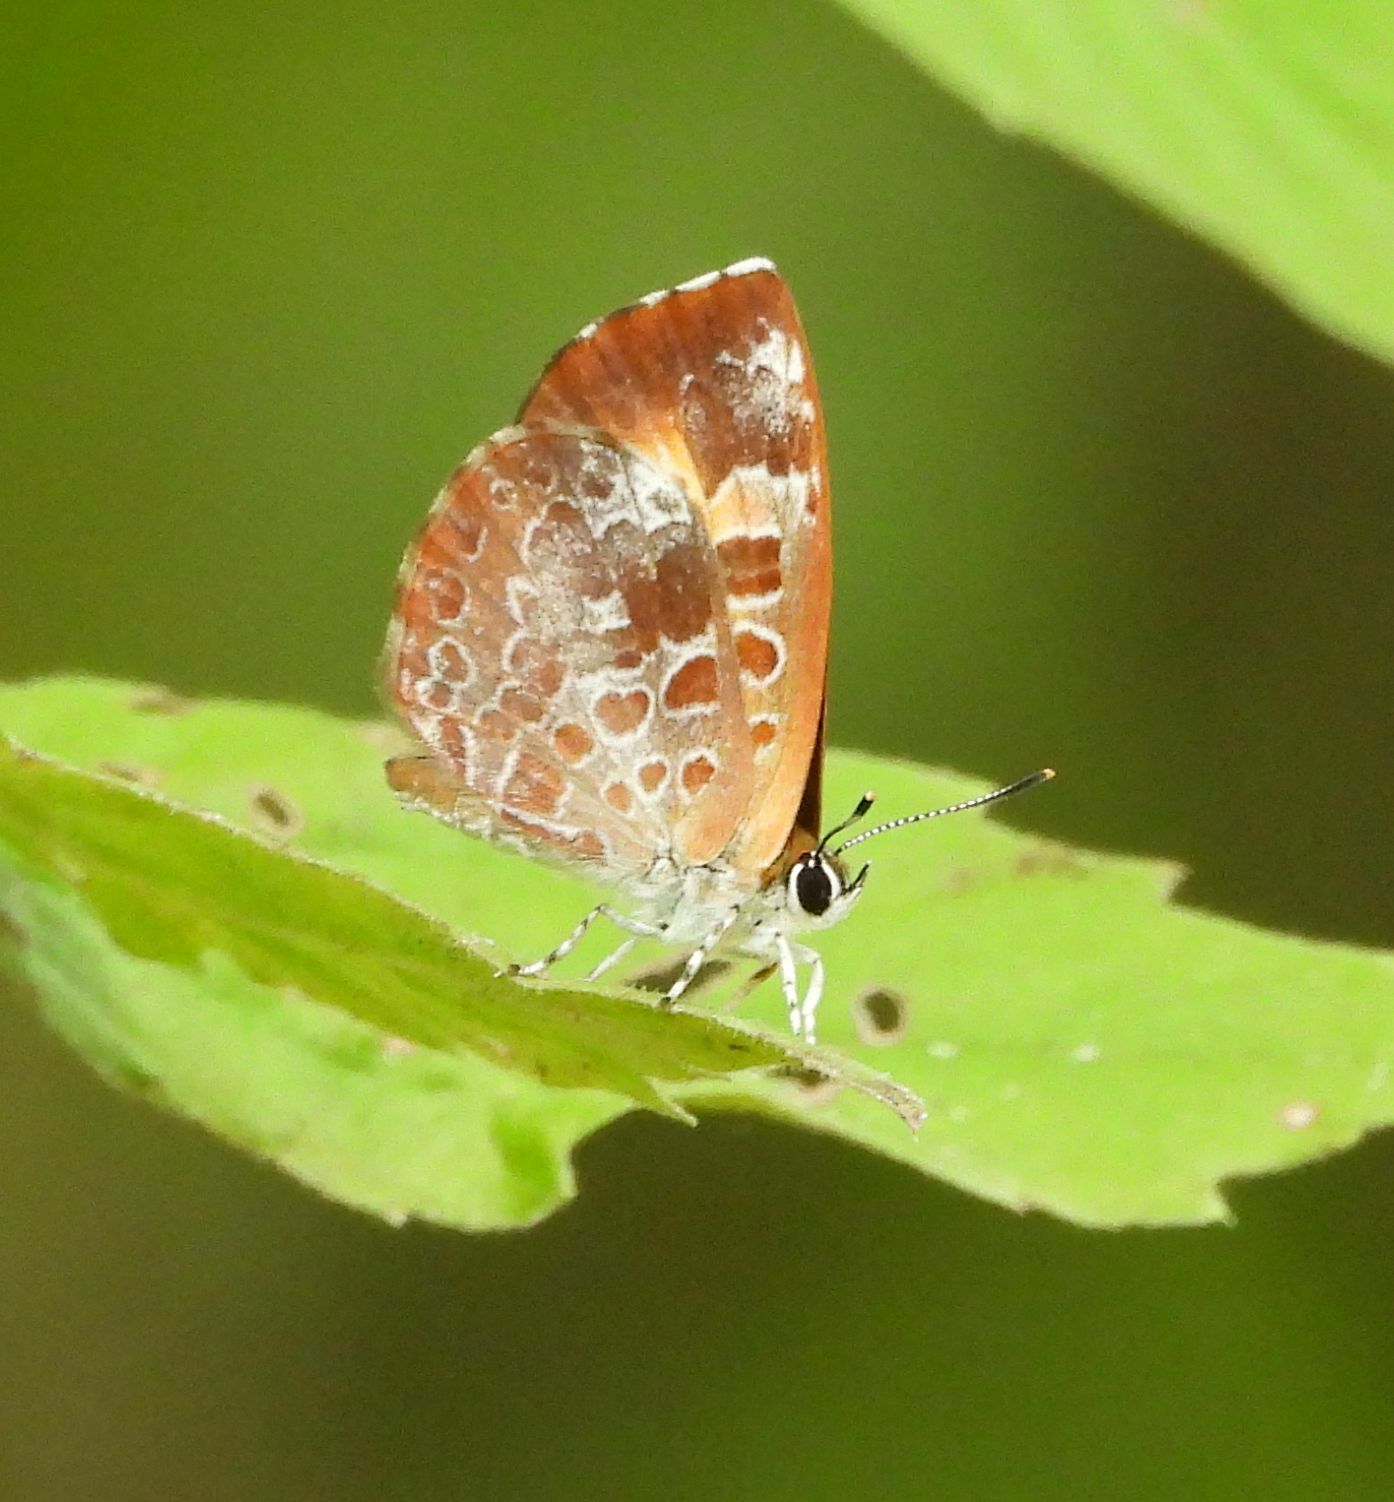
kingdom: Animalia
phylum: Arthropoda
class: Insecta
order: Lepidoptera
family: Lycaenidae
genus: Feniseca
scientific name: Feniseca tarquinius
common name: Harvester
